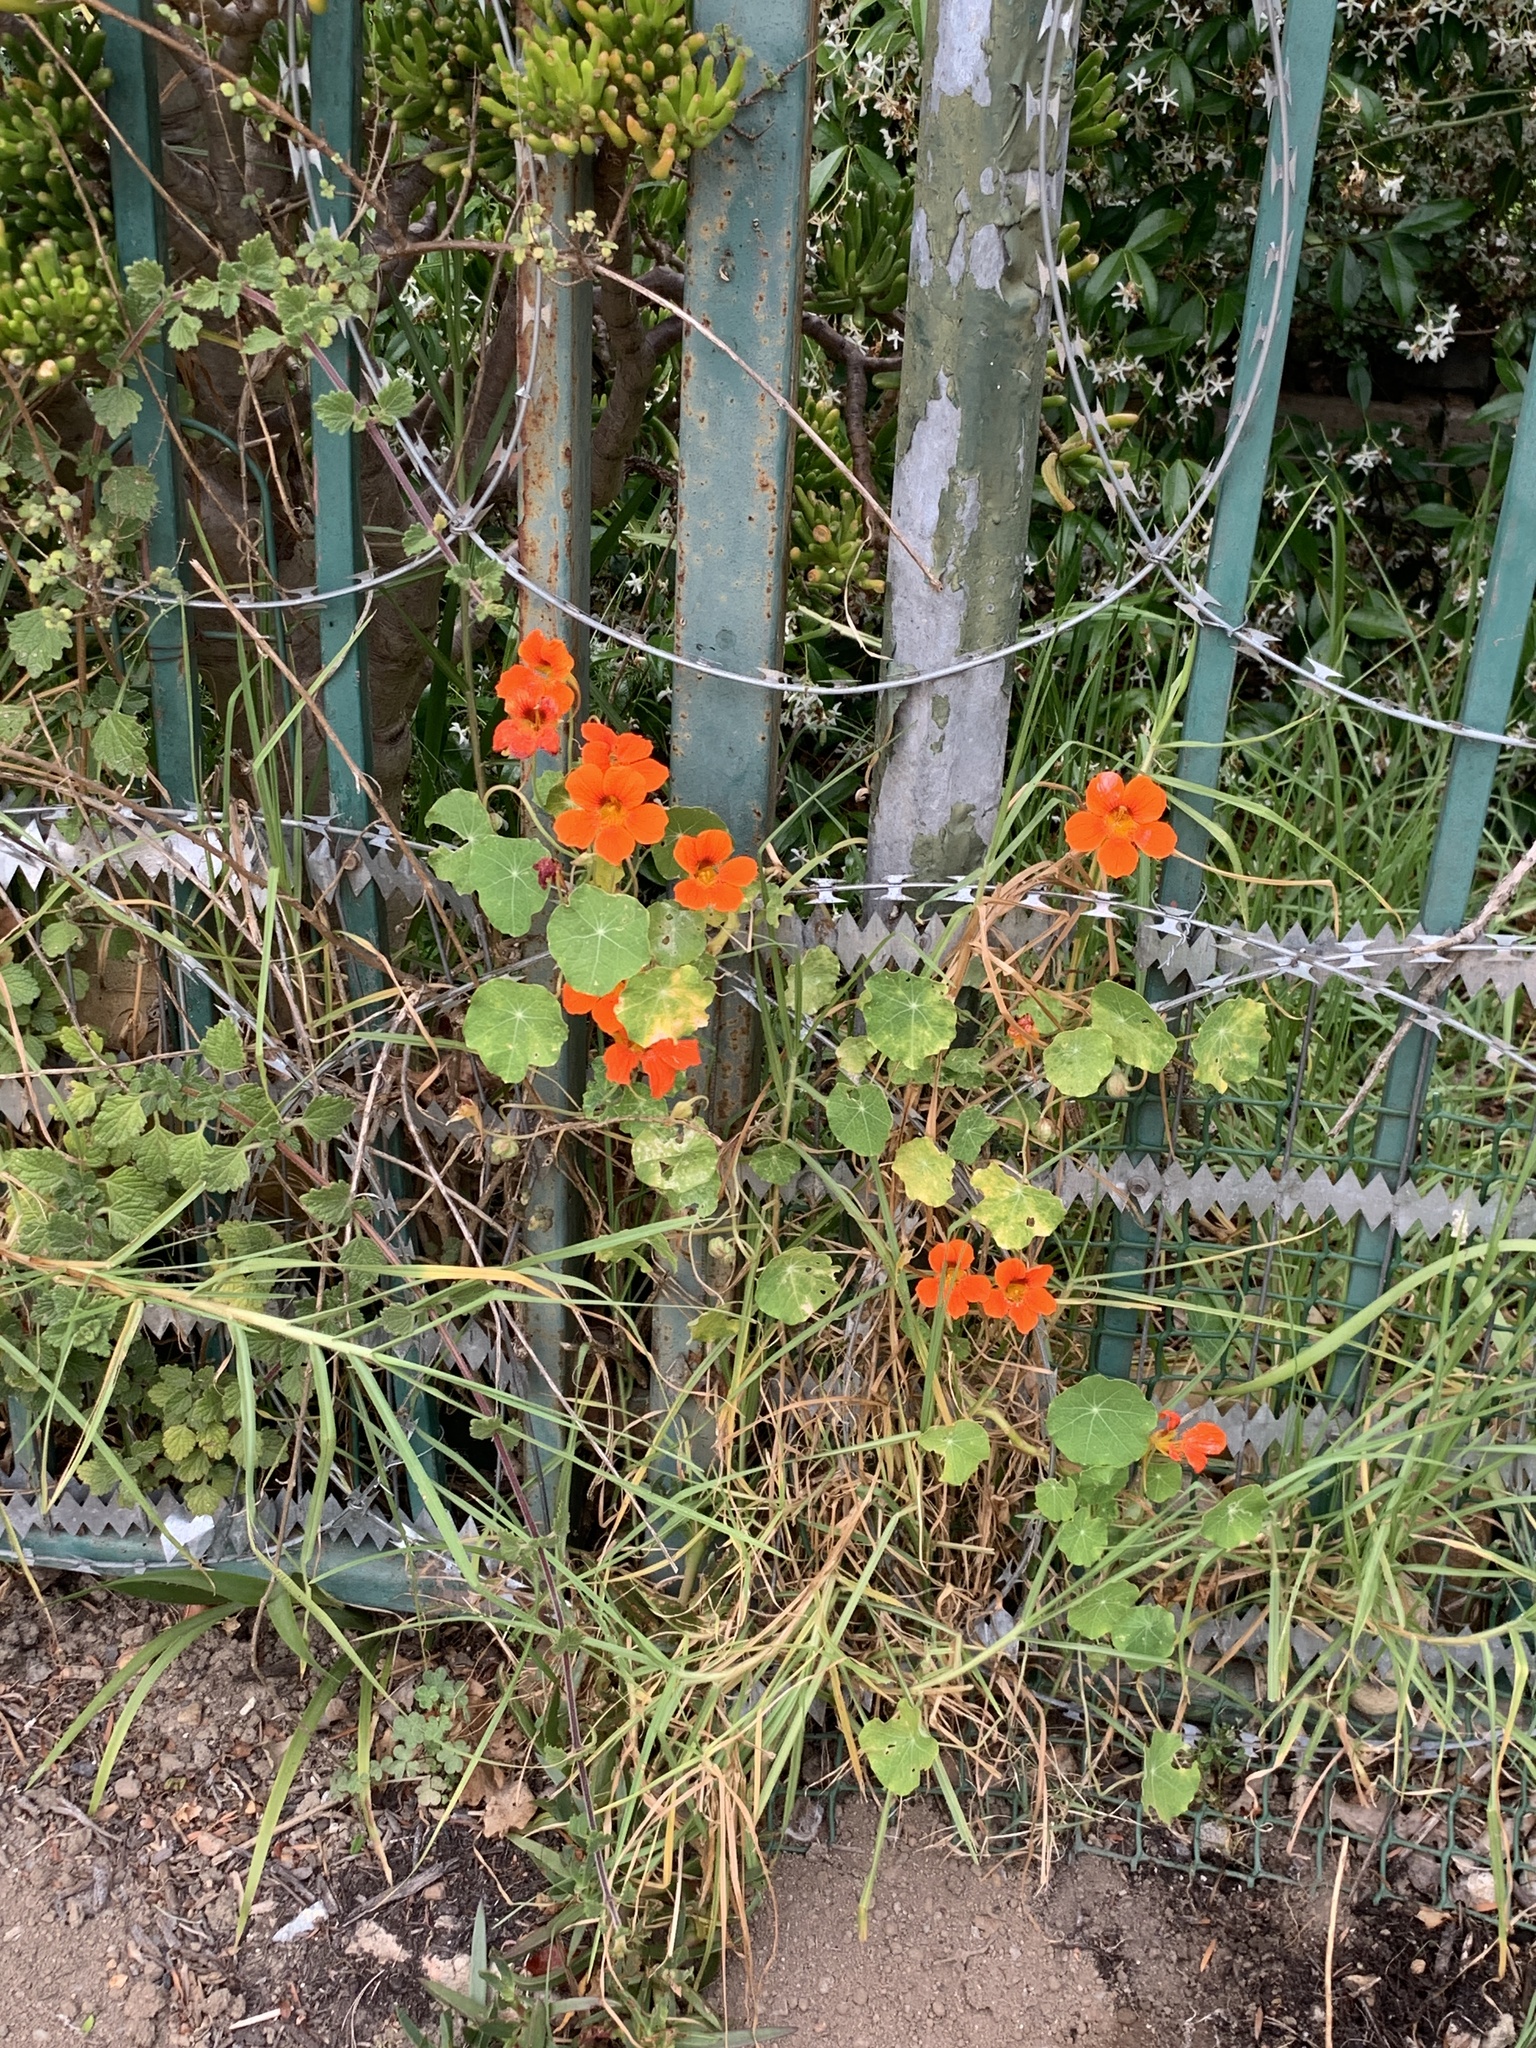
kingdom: Plantae
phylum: Tracheophyta
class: Magnoliopsida
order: Brassicales
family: Tropaeolaceae
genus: Tropaeolum
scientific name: Tropaeolum majus
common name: Nasturtium
